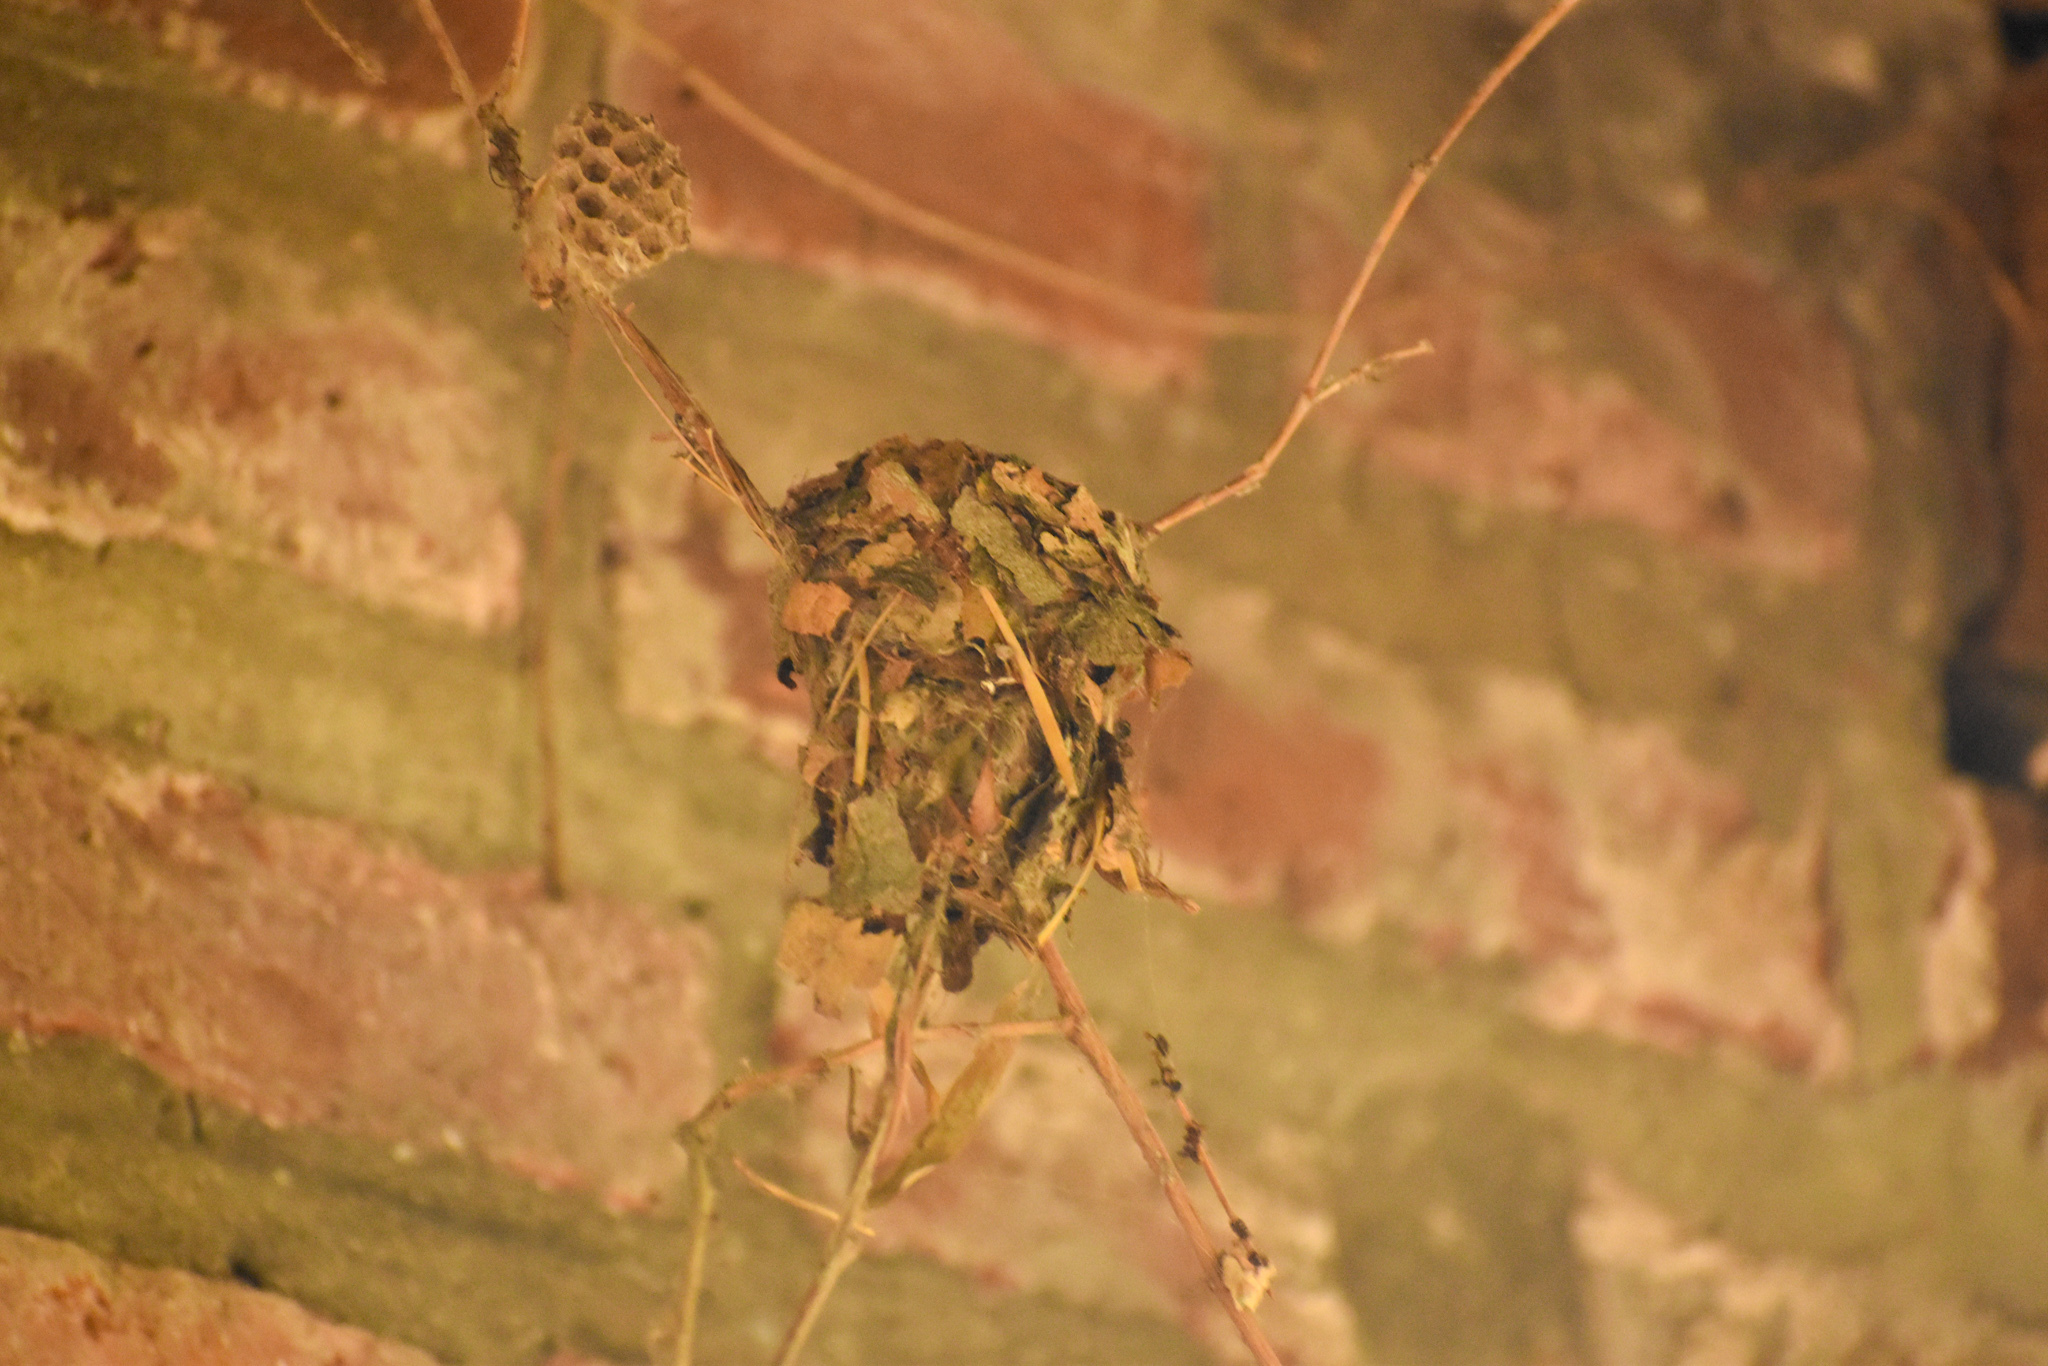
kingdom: Animalia
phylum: Chordata
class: Aves
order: Apodiformes
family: Trochilidae
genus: Leucochloris
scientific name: Leucochloris albicollis
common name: White-throated hummingbird
